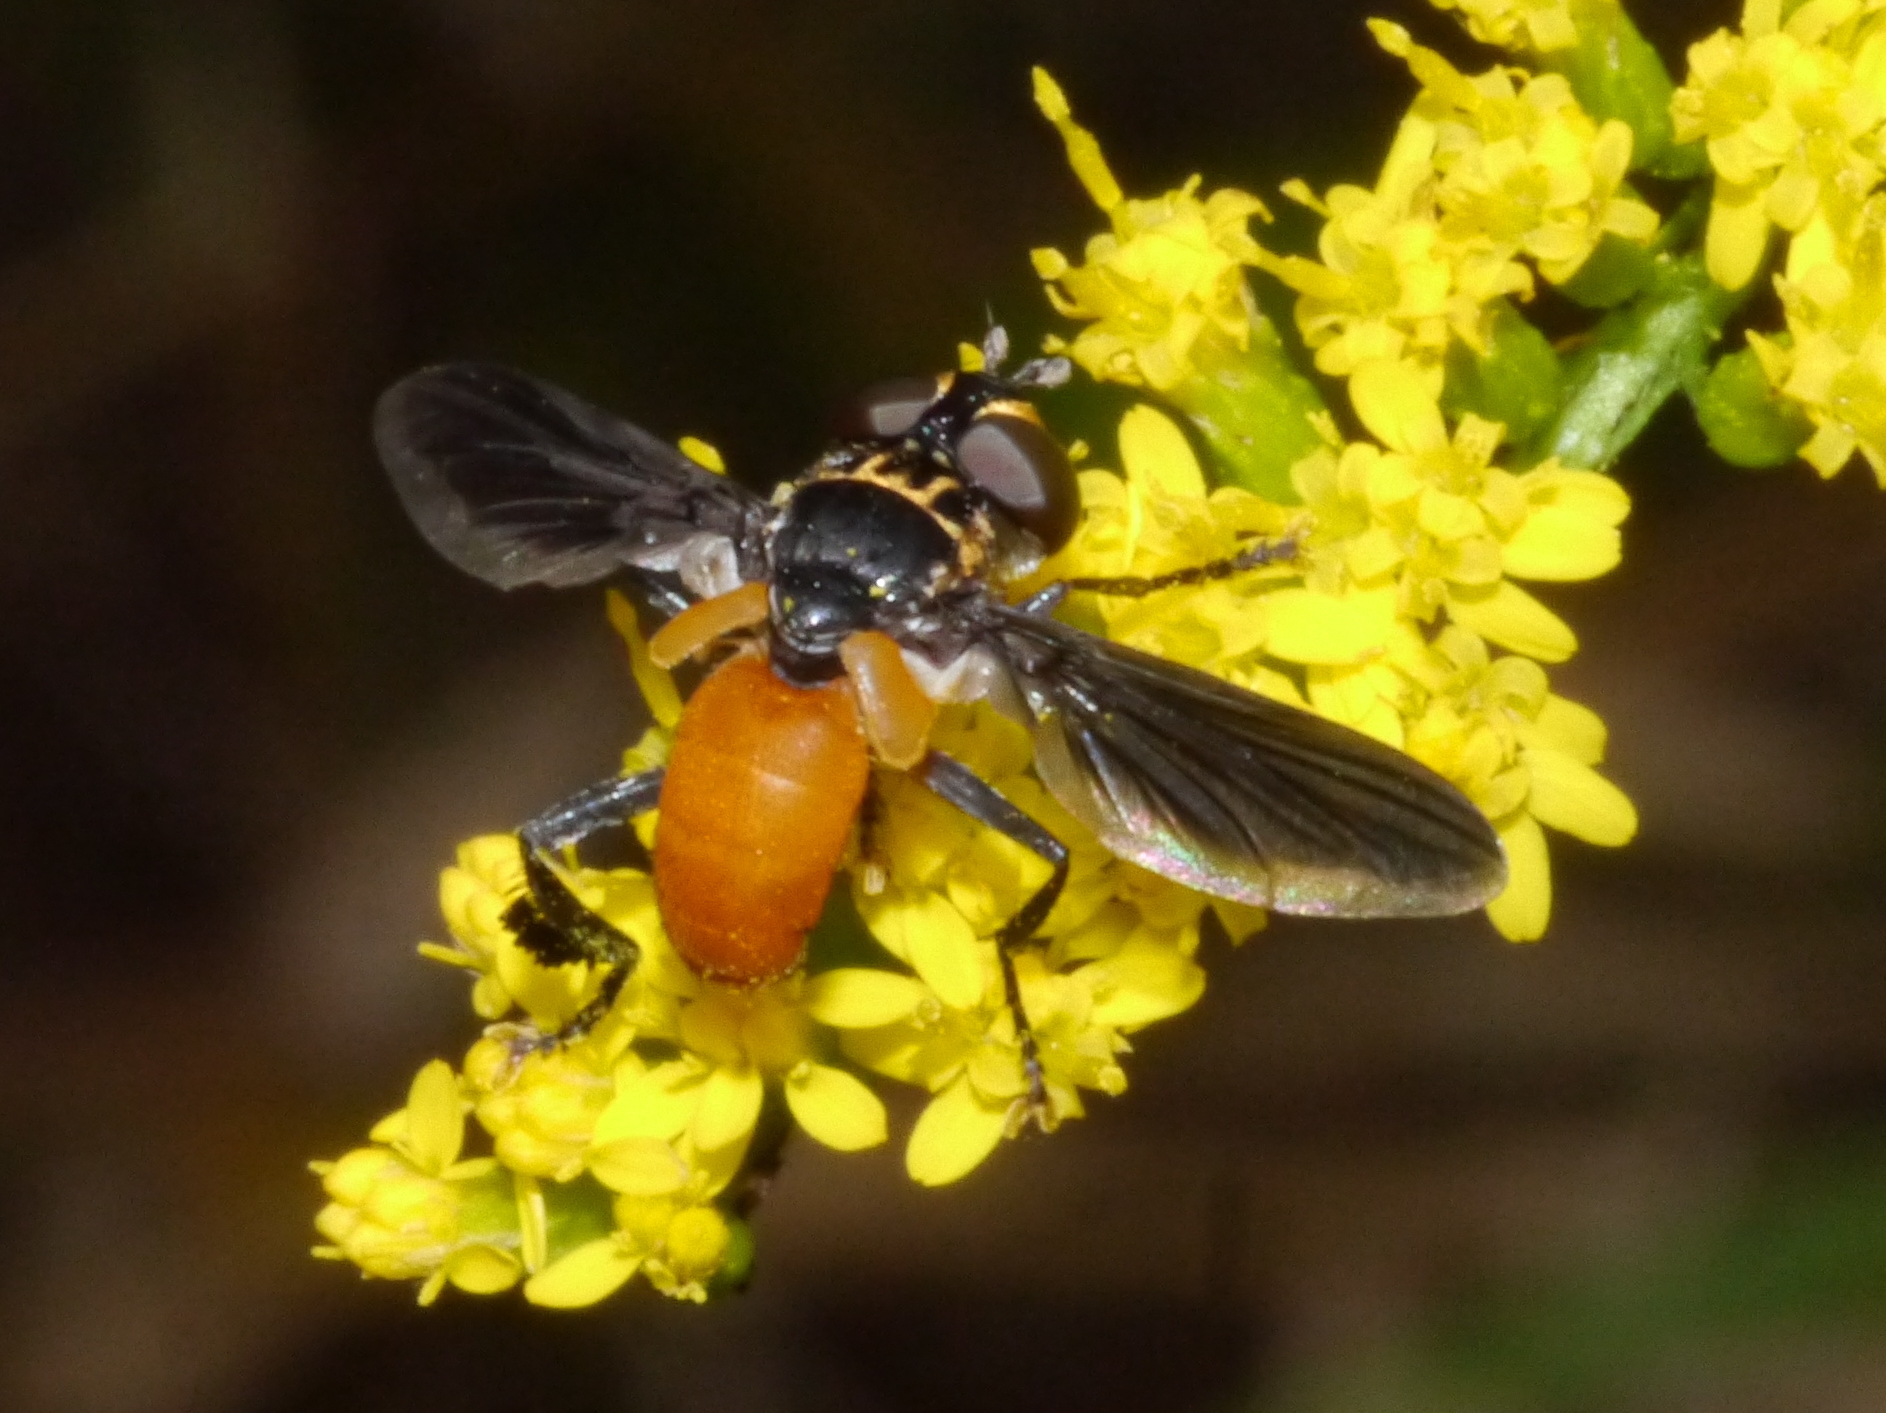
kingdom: Animalia
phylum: Arthropoda
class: Insecta
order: Diptera
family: Tachinidae
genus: Trichopoda
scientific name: Trichopoda pennipes
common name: Tachinid fly
